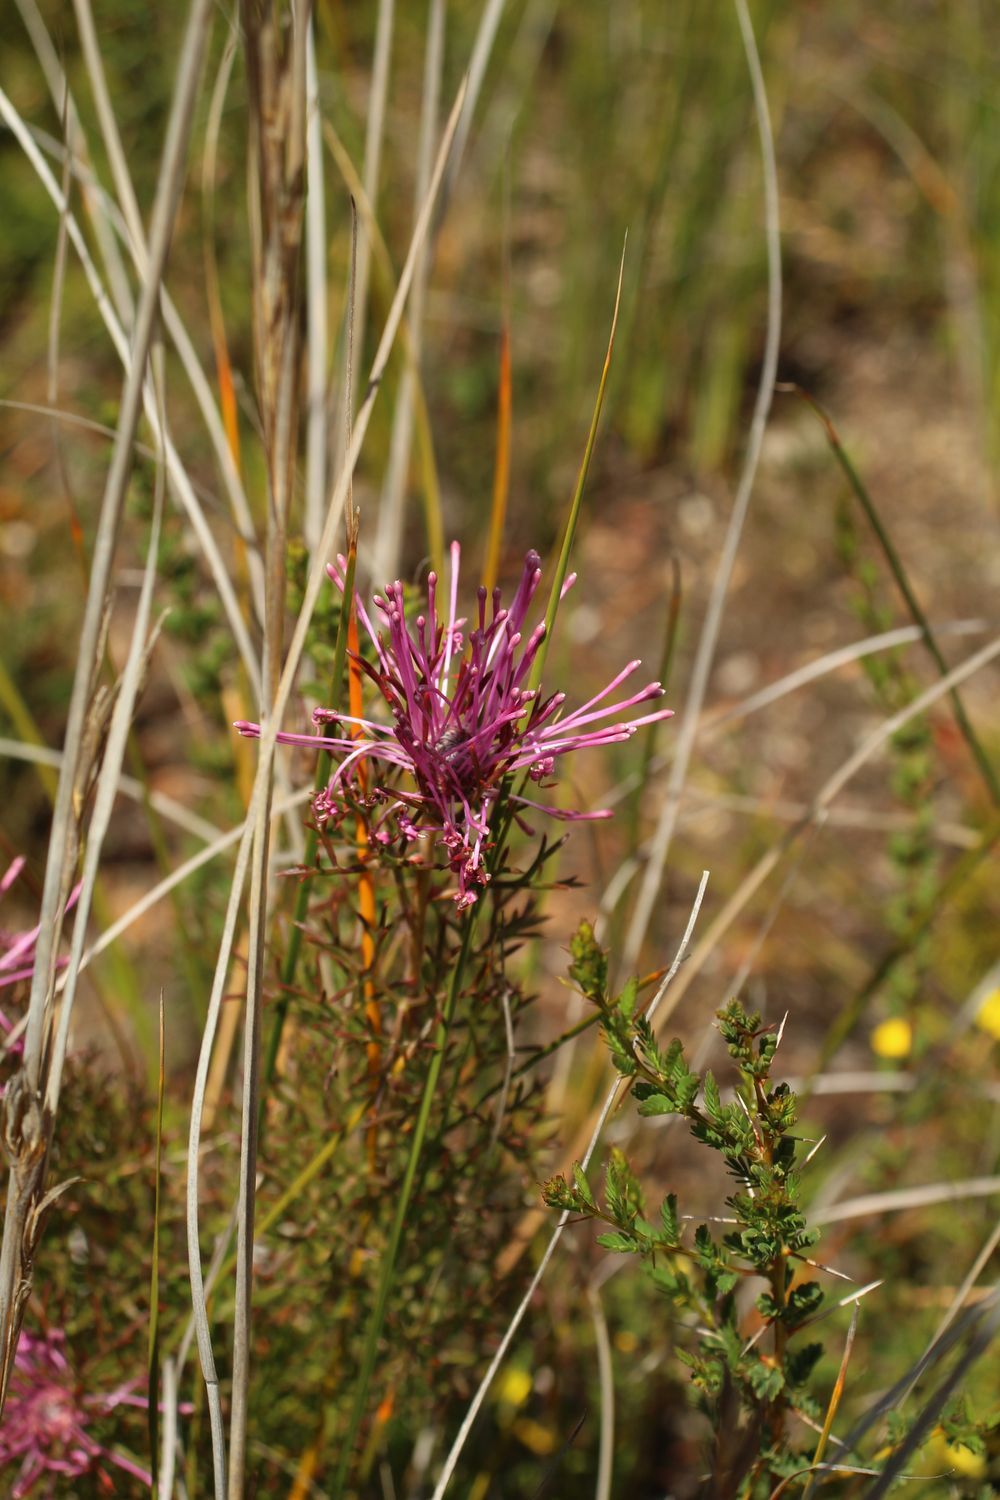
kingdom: Plantae
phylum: Tracheophyta
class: Magnoliopsida
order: Proteales
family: Proteaceae
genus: Isopogon
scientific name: Isopogon formosus
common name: Rose-coneflower
